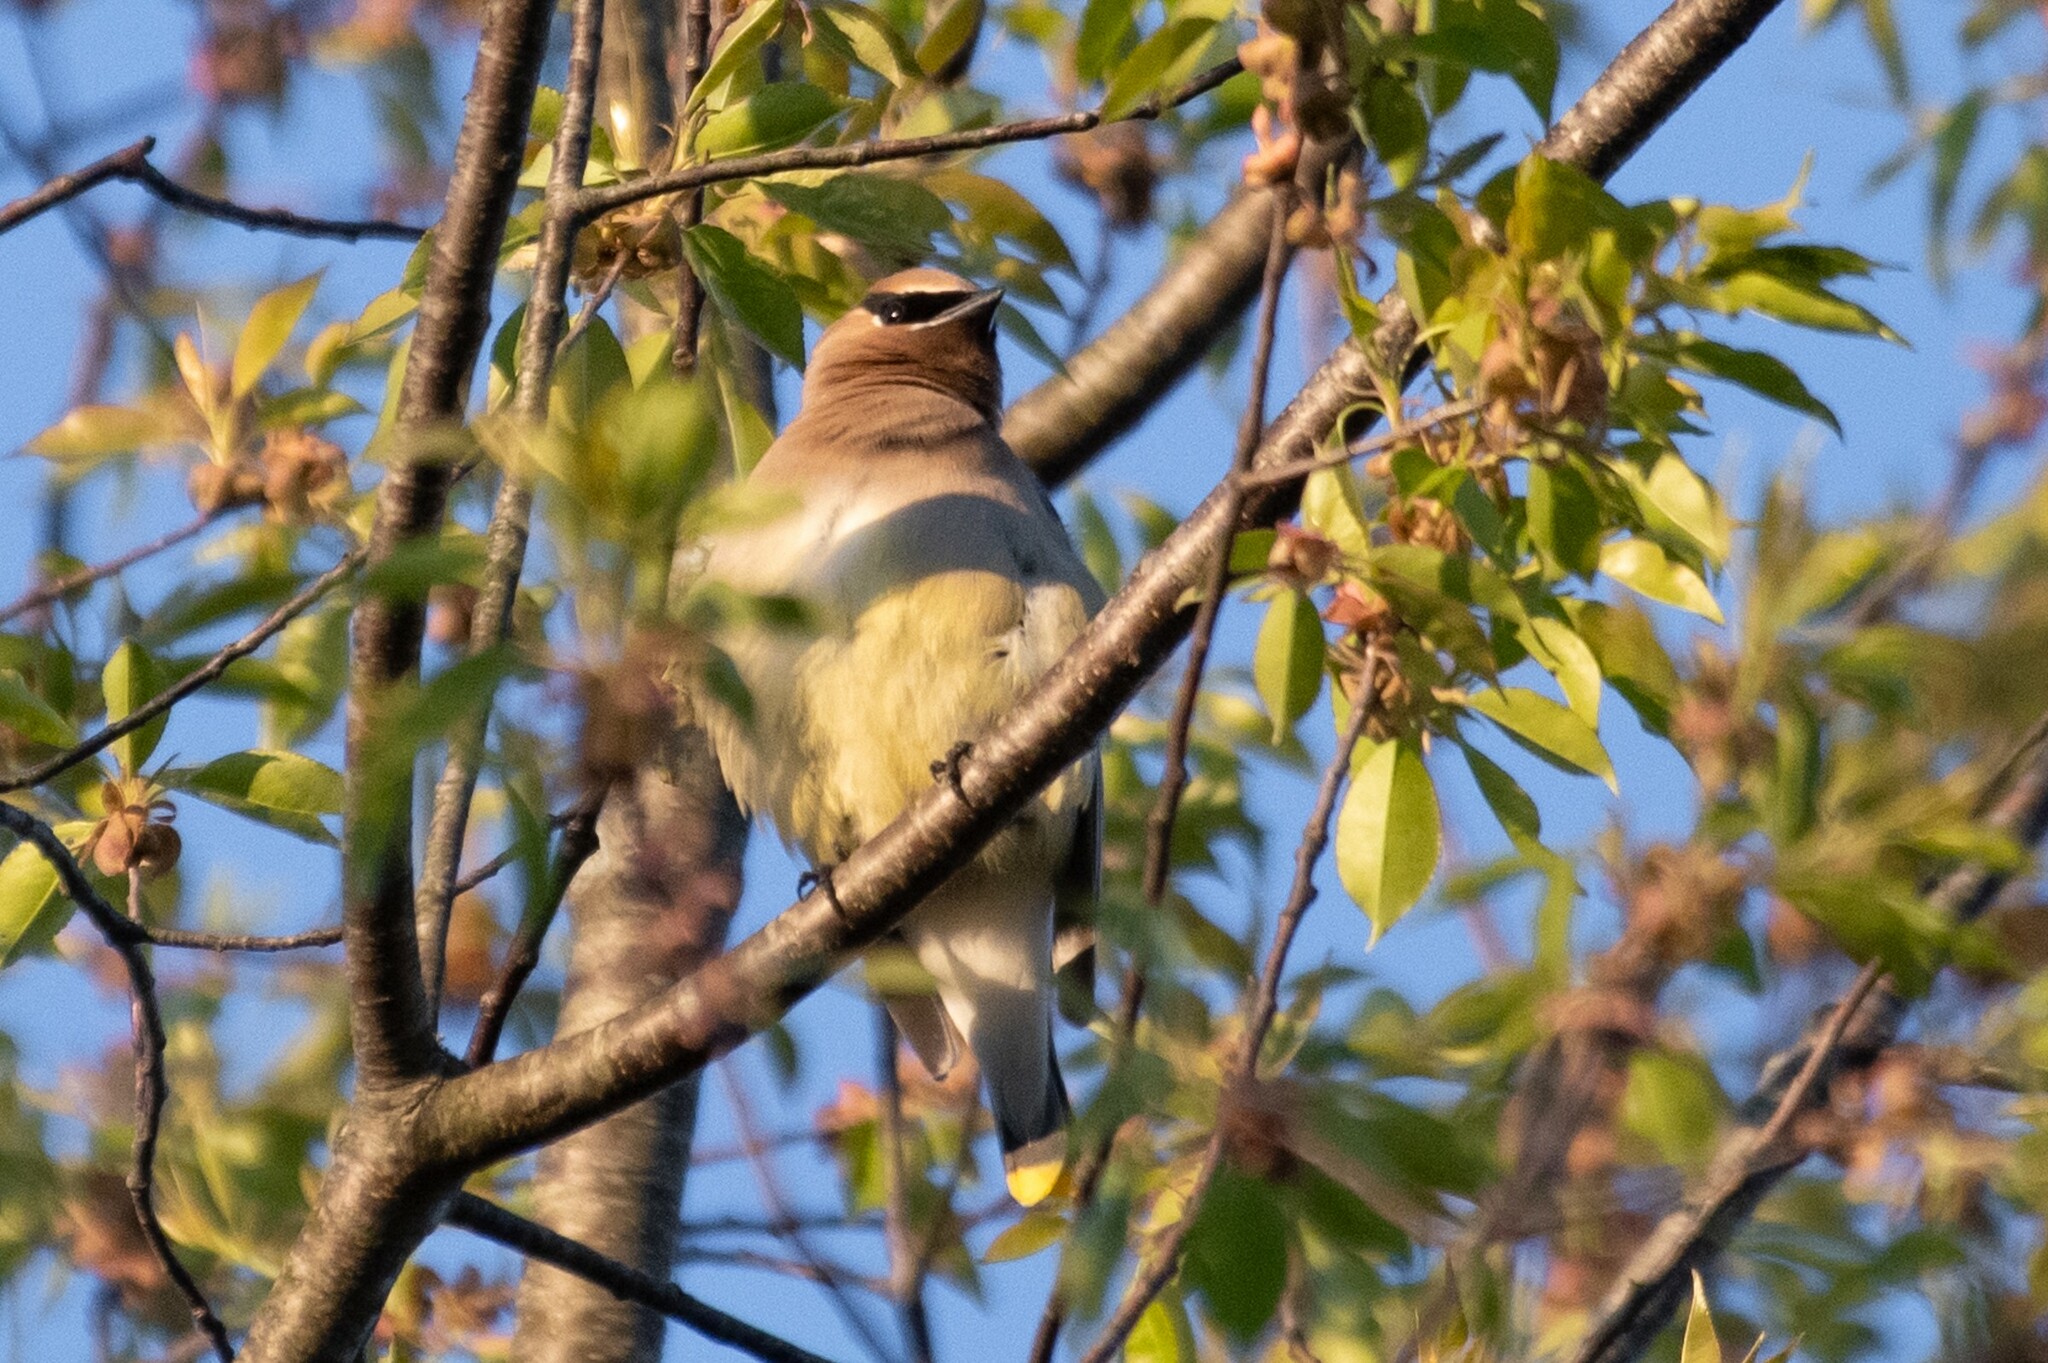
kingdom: Animalia
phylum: Chordata
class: Aves
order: Passeriformes
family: Bombycillidae
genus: Bombycilla
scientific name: Bombycilla cedrorum
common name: Cedar waxwing
